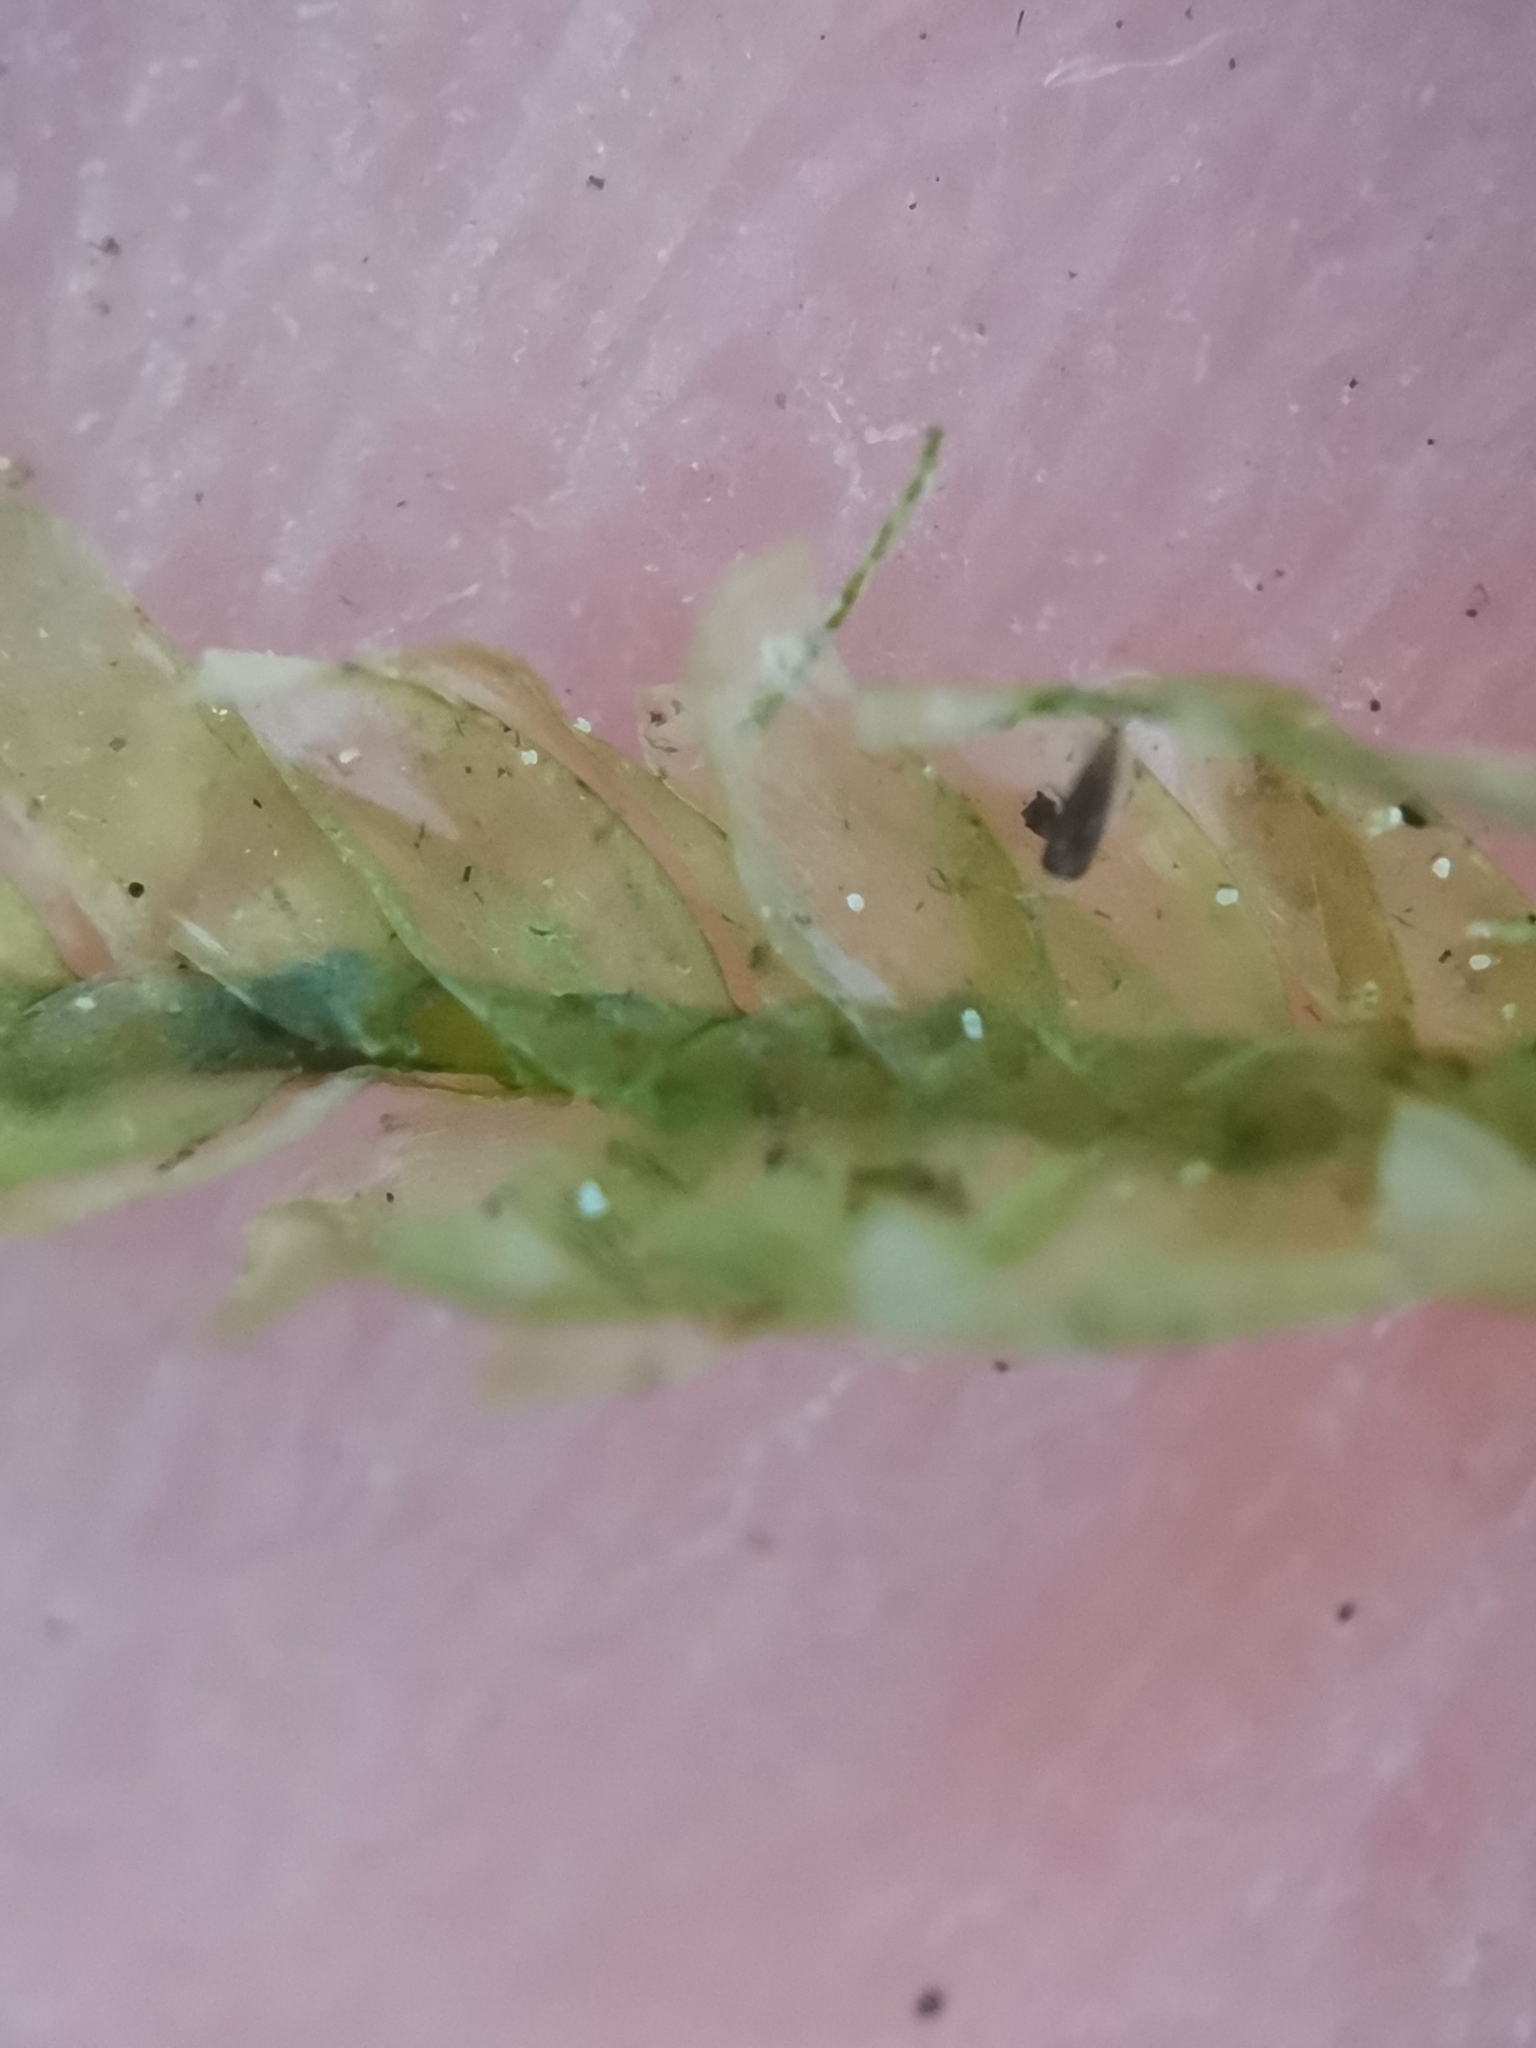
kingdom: Plantae
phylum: Bryophyta
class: Bryopsida
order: Hypnales
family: Neckeraceae
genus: Alleniella
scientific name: Alleniella complanata
